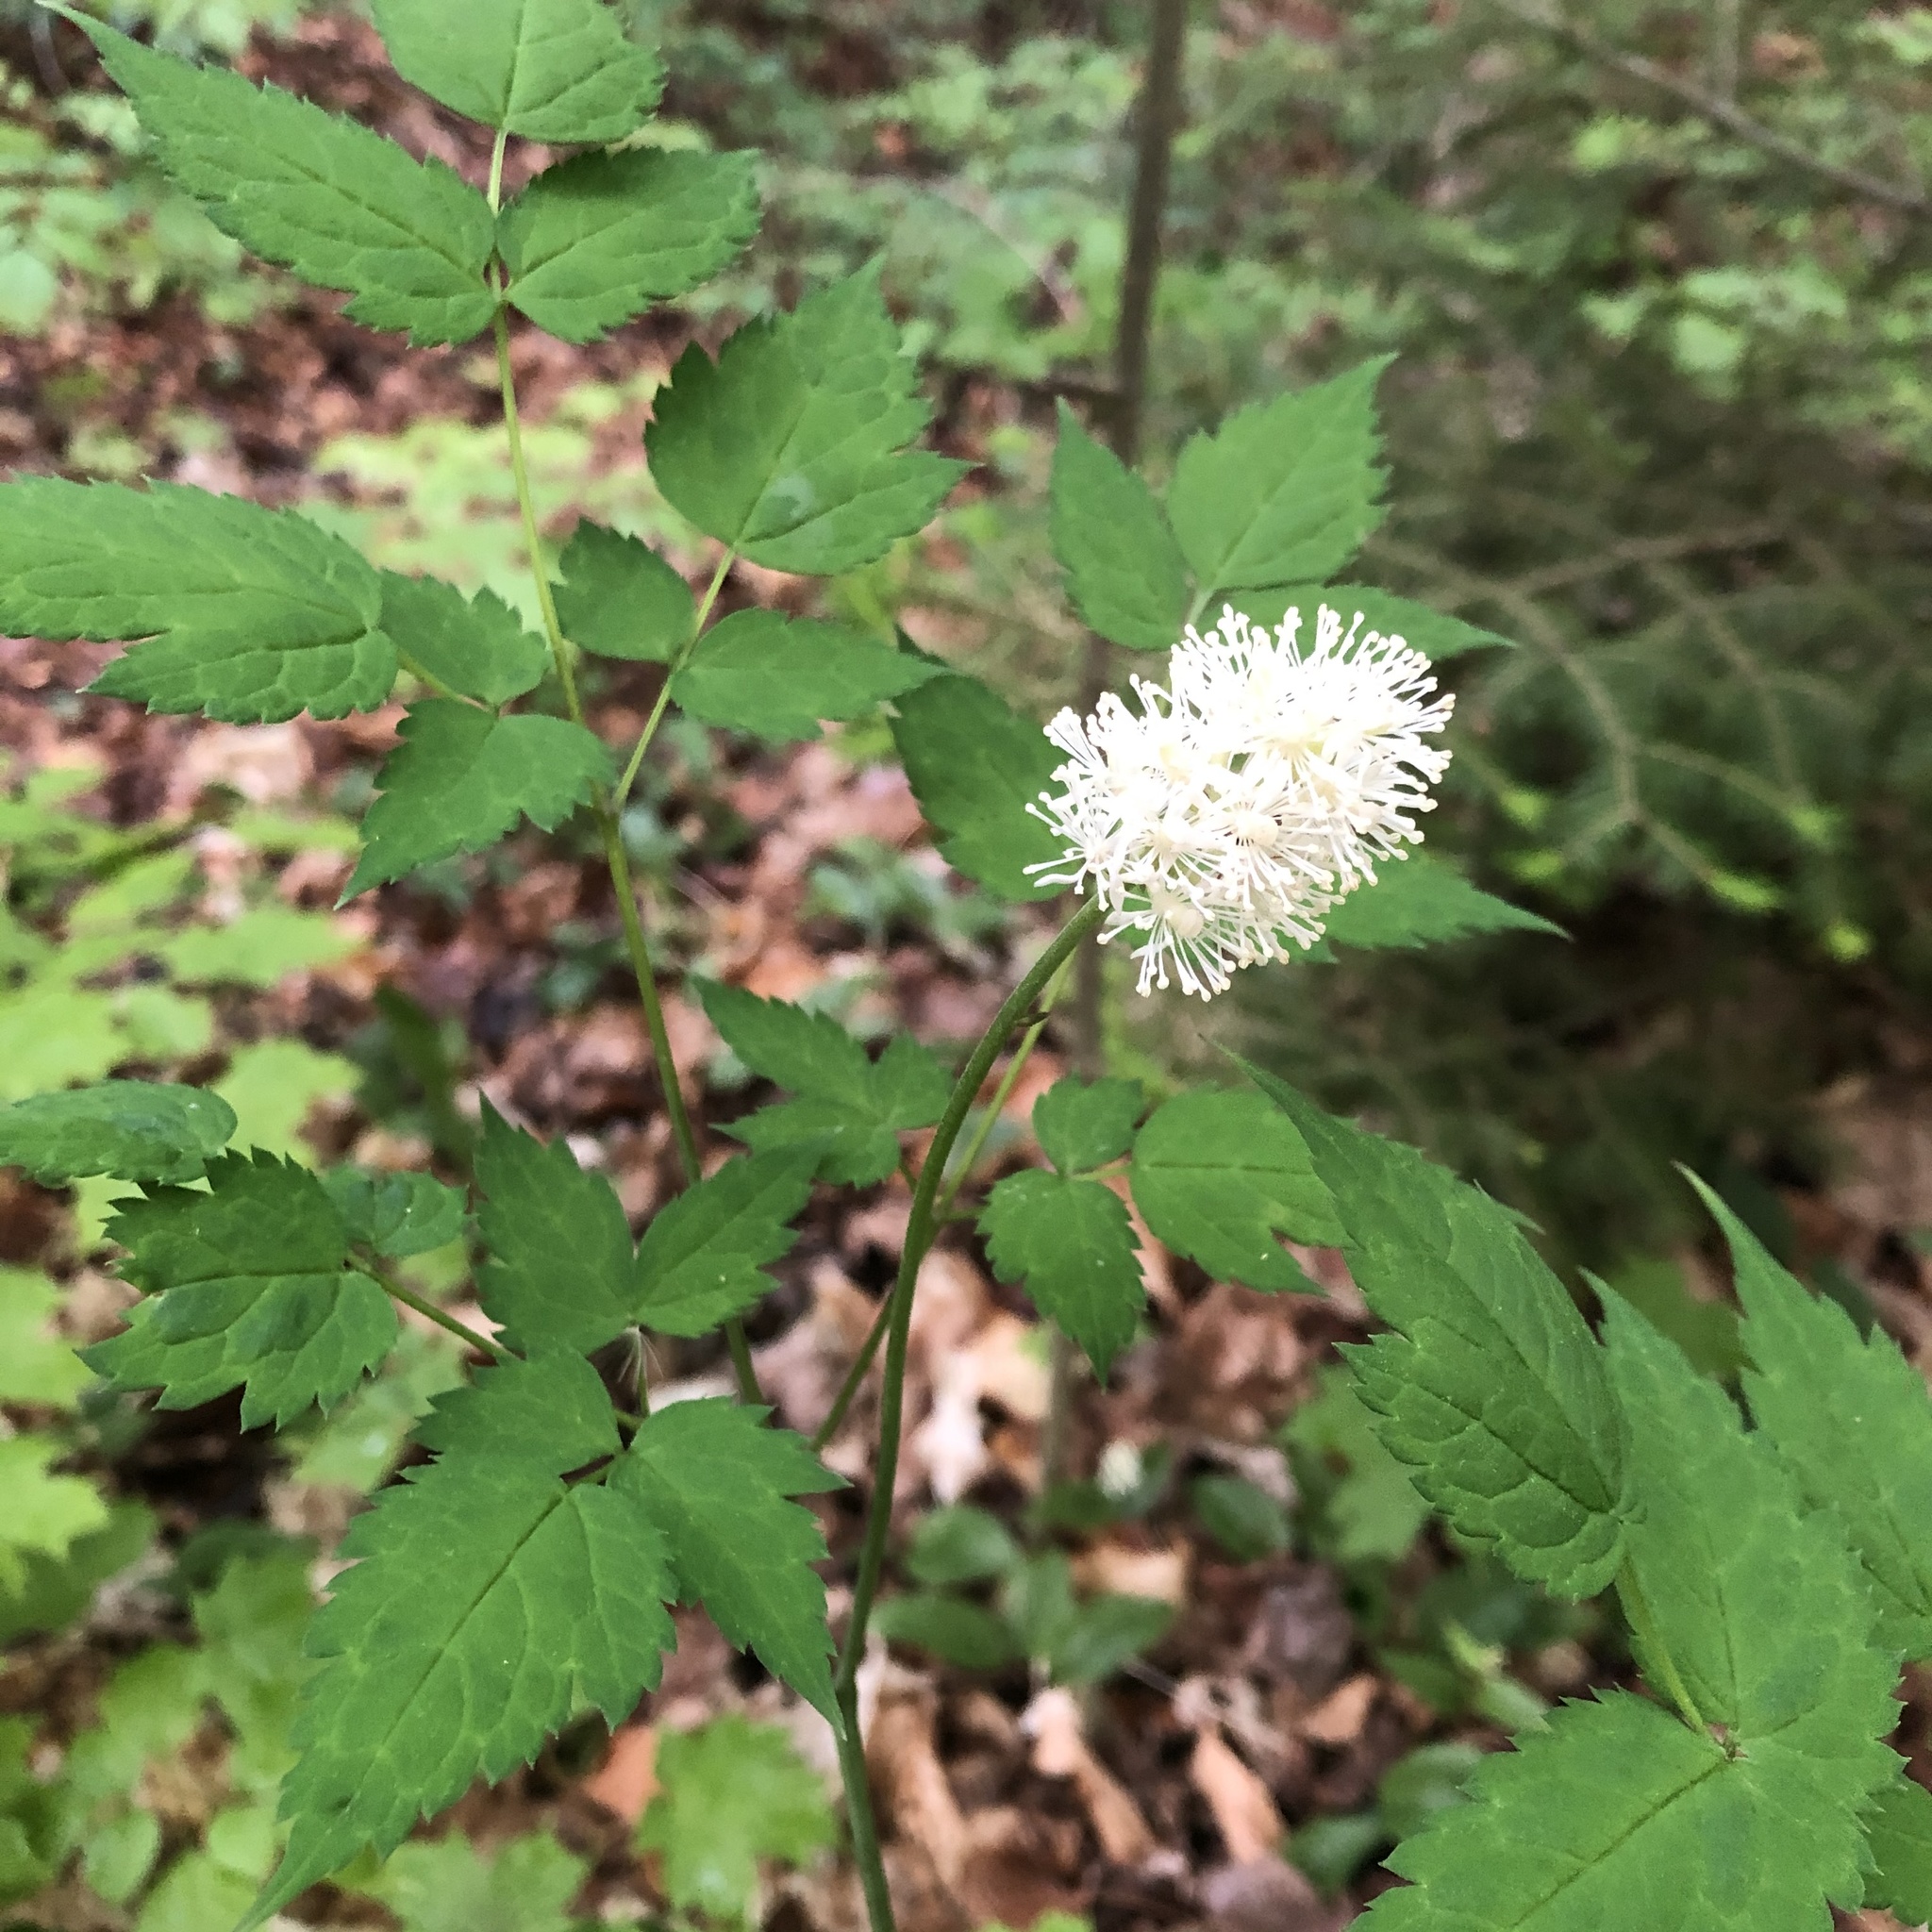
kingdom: Plantae
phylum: Tracheophyta
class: Magnoliopsida
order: Ranunculales
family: Ranunculaceae
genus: Actaea
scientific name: Actaea pachypoda
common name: Doll's-eyes
